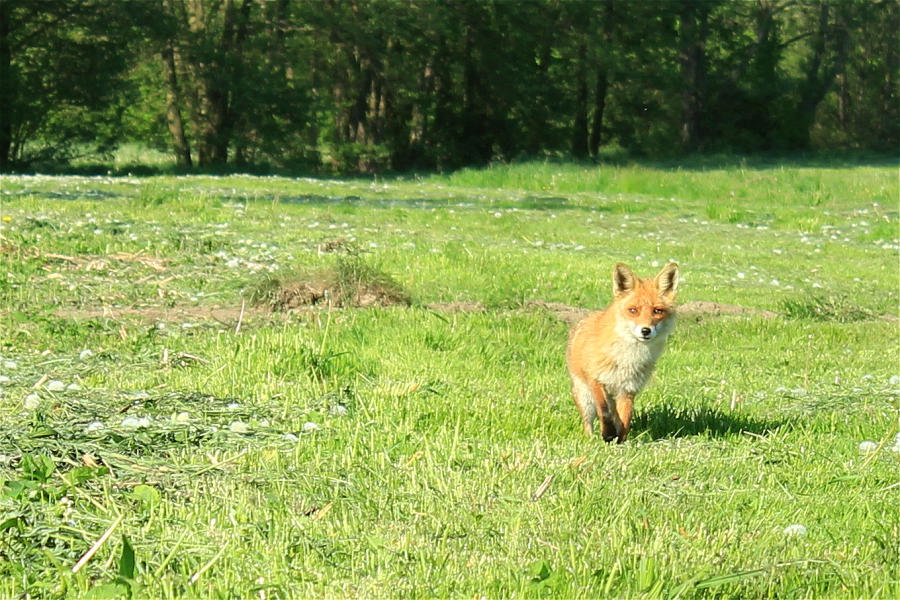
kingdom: Animalia
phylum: Chordata
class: Mammalia
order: Carnivora
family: Canidae
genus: Vulpes
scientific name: Vulpes vulpes
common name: Red fox
